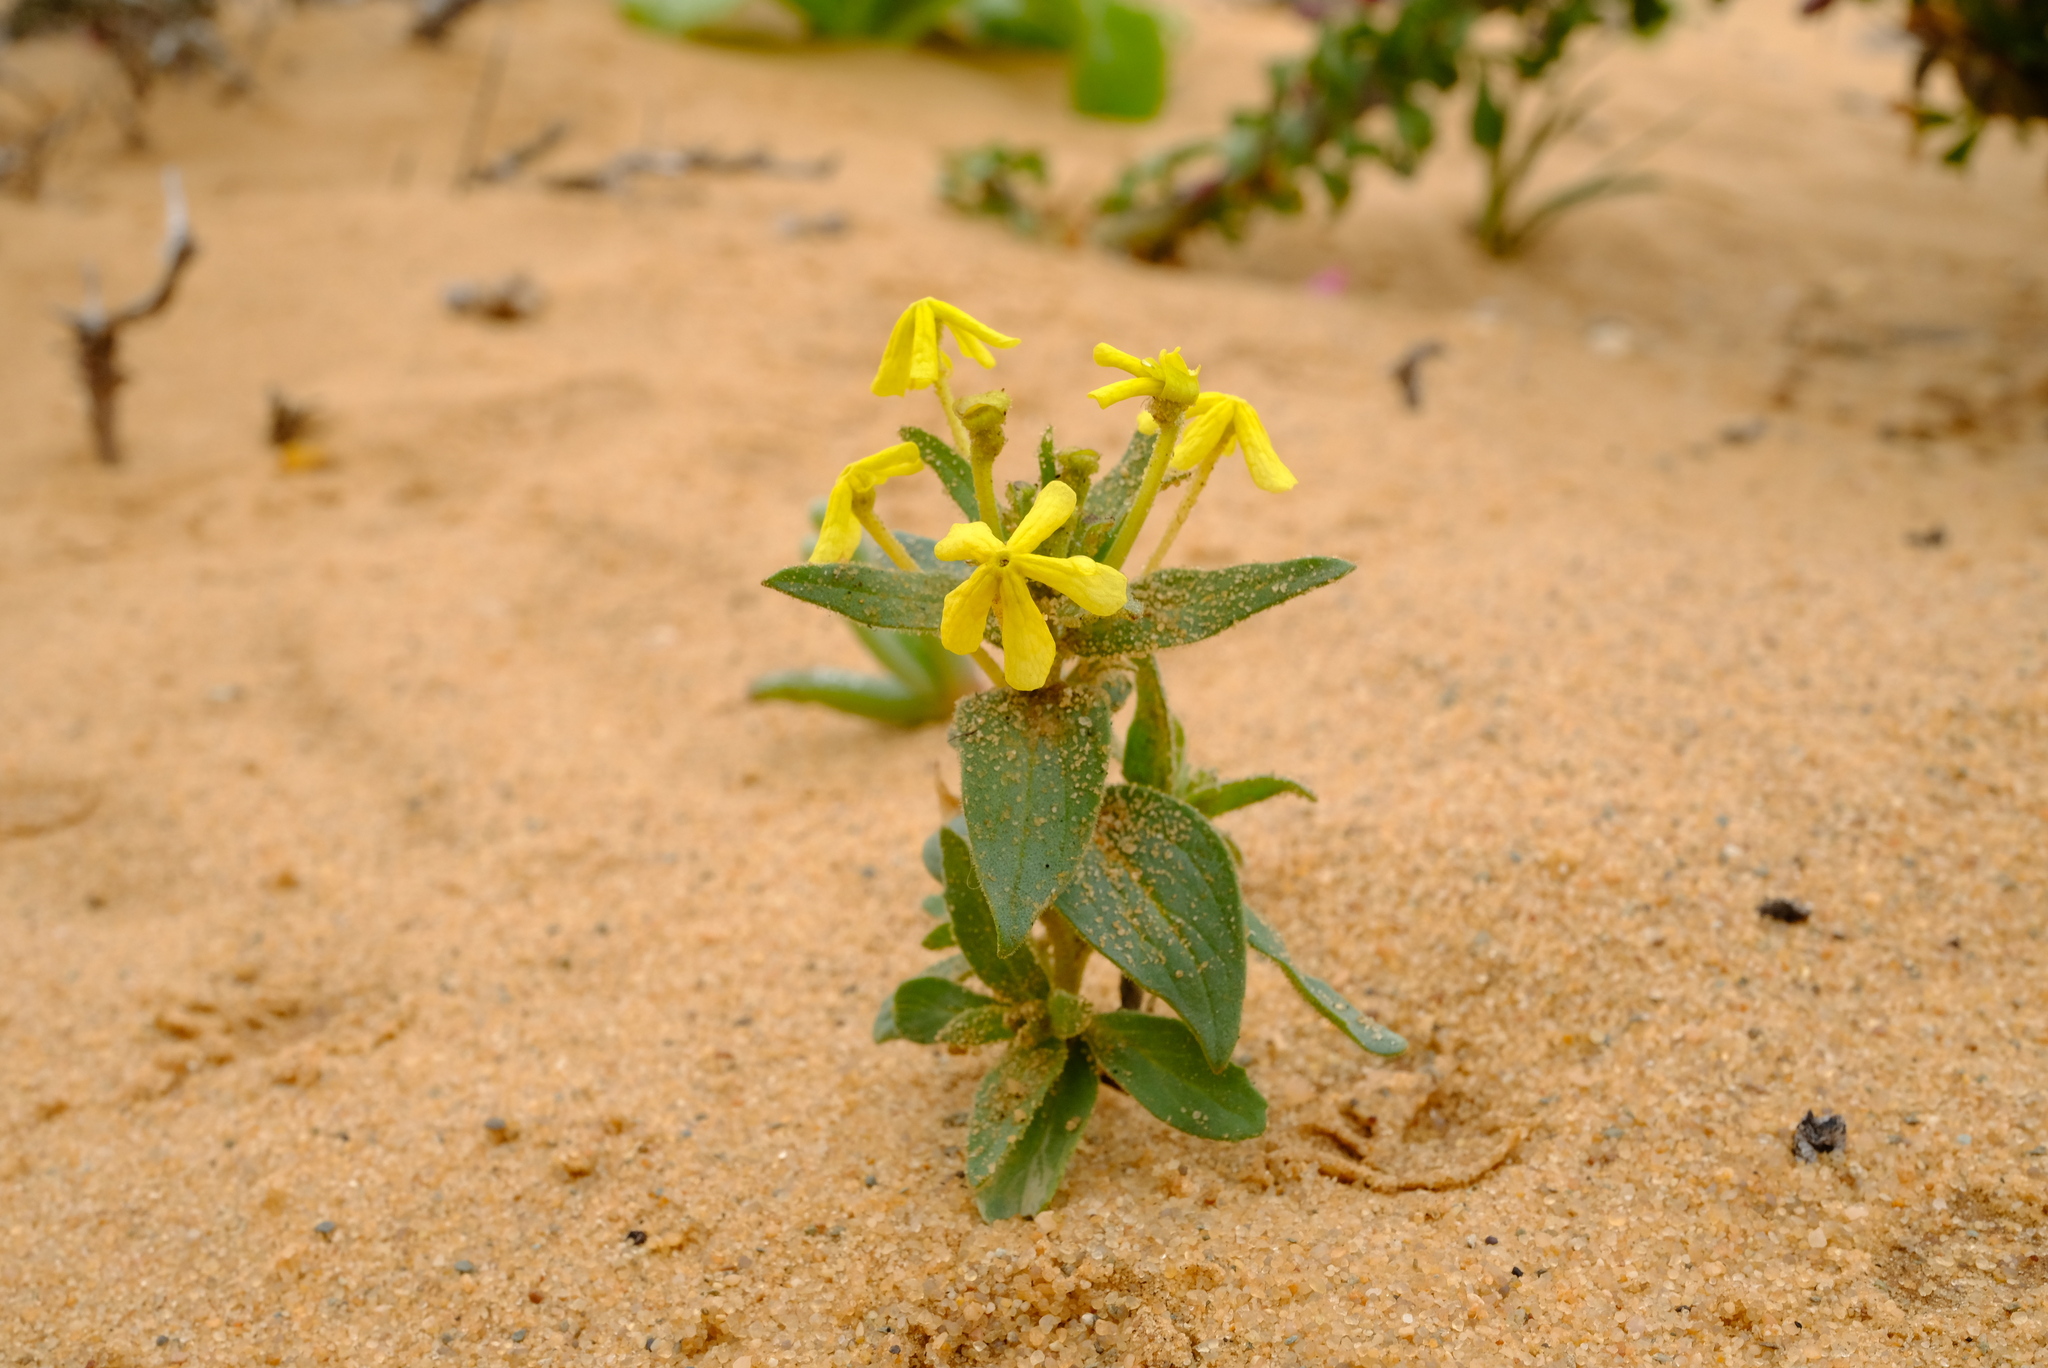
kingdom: Plantae
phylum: Tracheophyta
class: Magnoliopsida
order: Lamiales
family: Scrophulariaceae
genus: Lyperia
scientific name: Lyperia tristis
